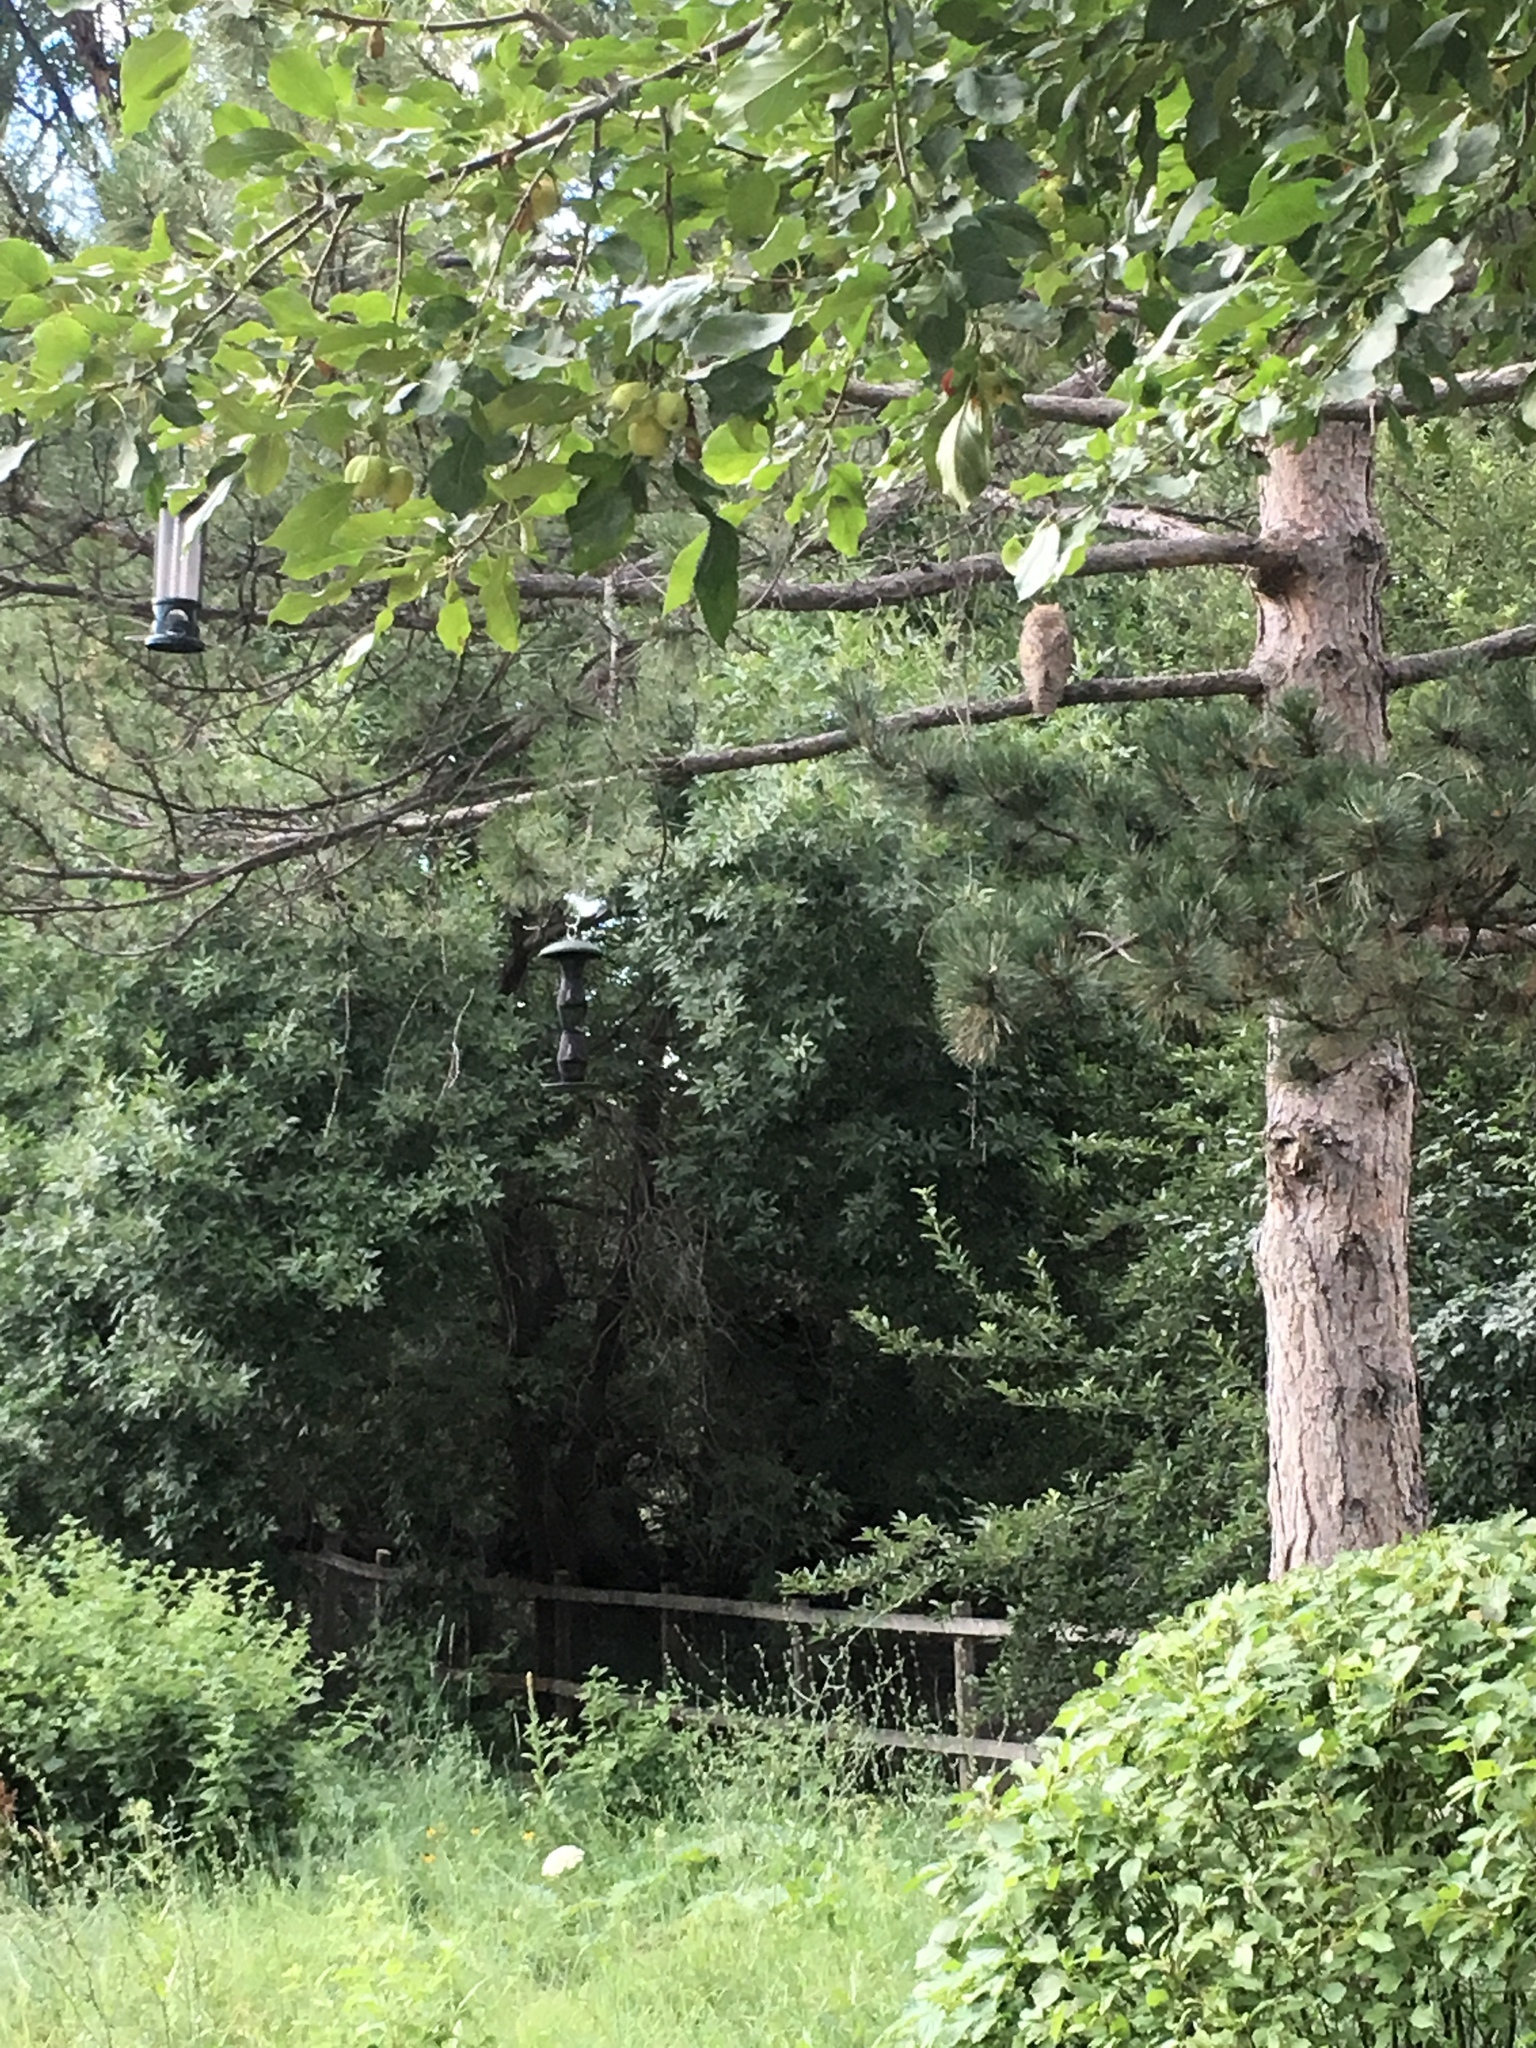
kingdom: Animalia
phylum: Chordata
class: Aves
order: Strigiformes
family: Strigidae
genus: Bubo
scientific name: Bubo virginianus
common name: Great horned owl
